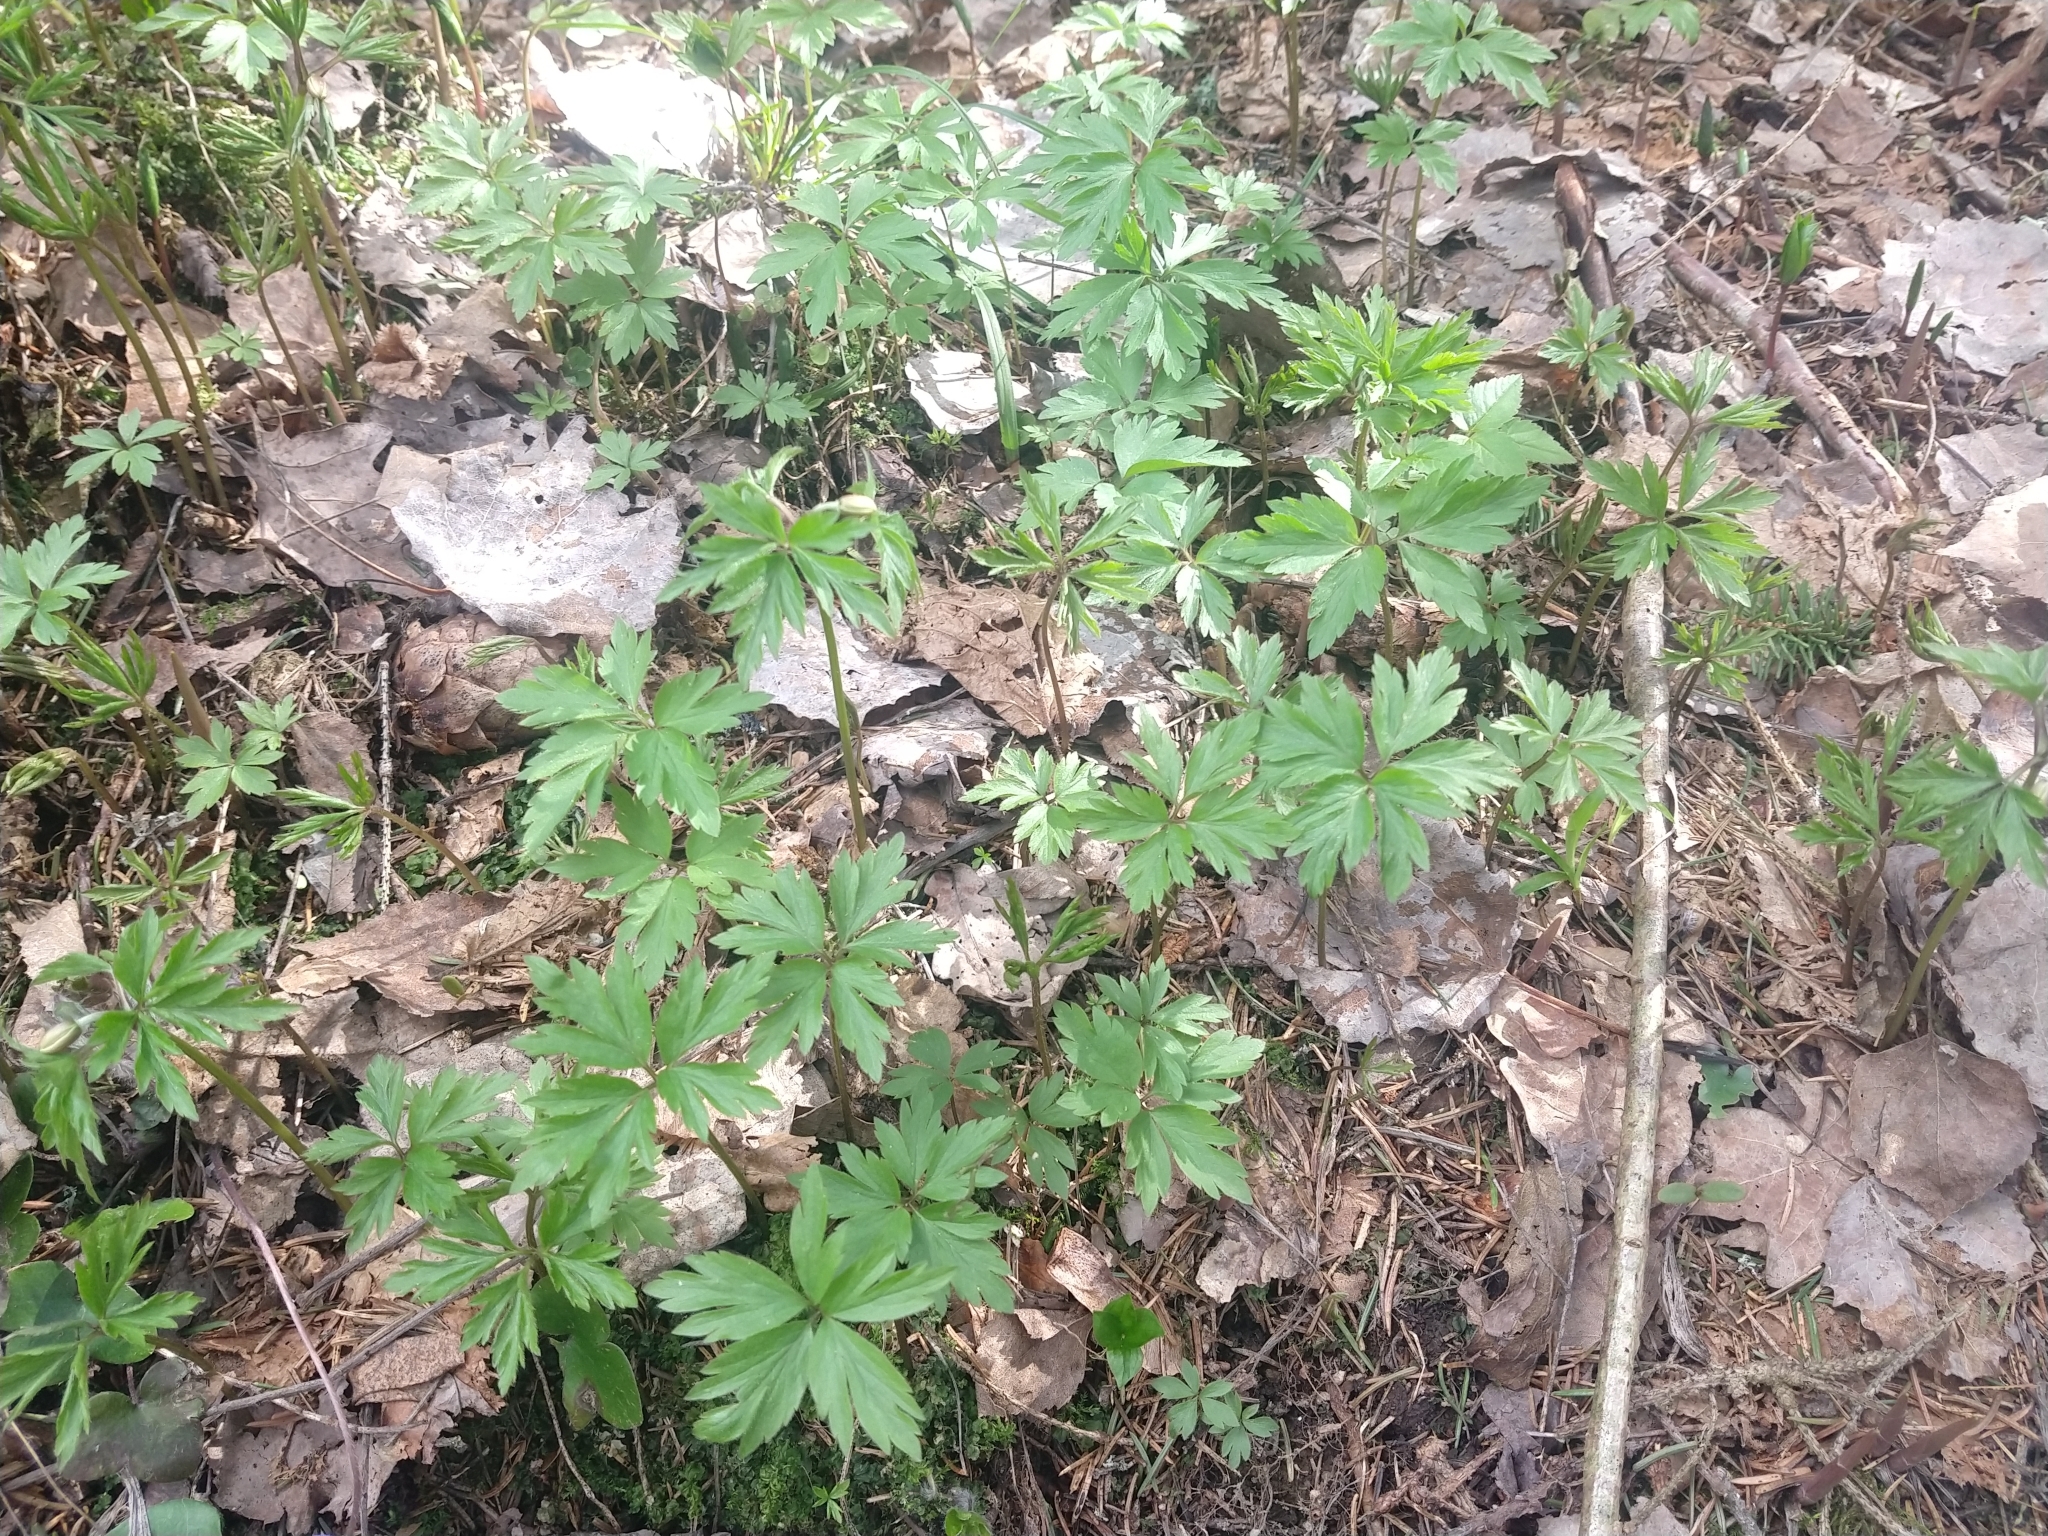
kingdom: Plantae
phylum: Tracheophyta
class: Magnoliopsida
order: Ranunculales
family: Ranunculaceae
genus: Anemone
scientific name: Anemone nemorosa
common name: Wood anemone
